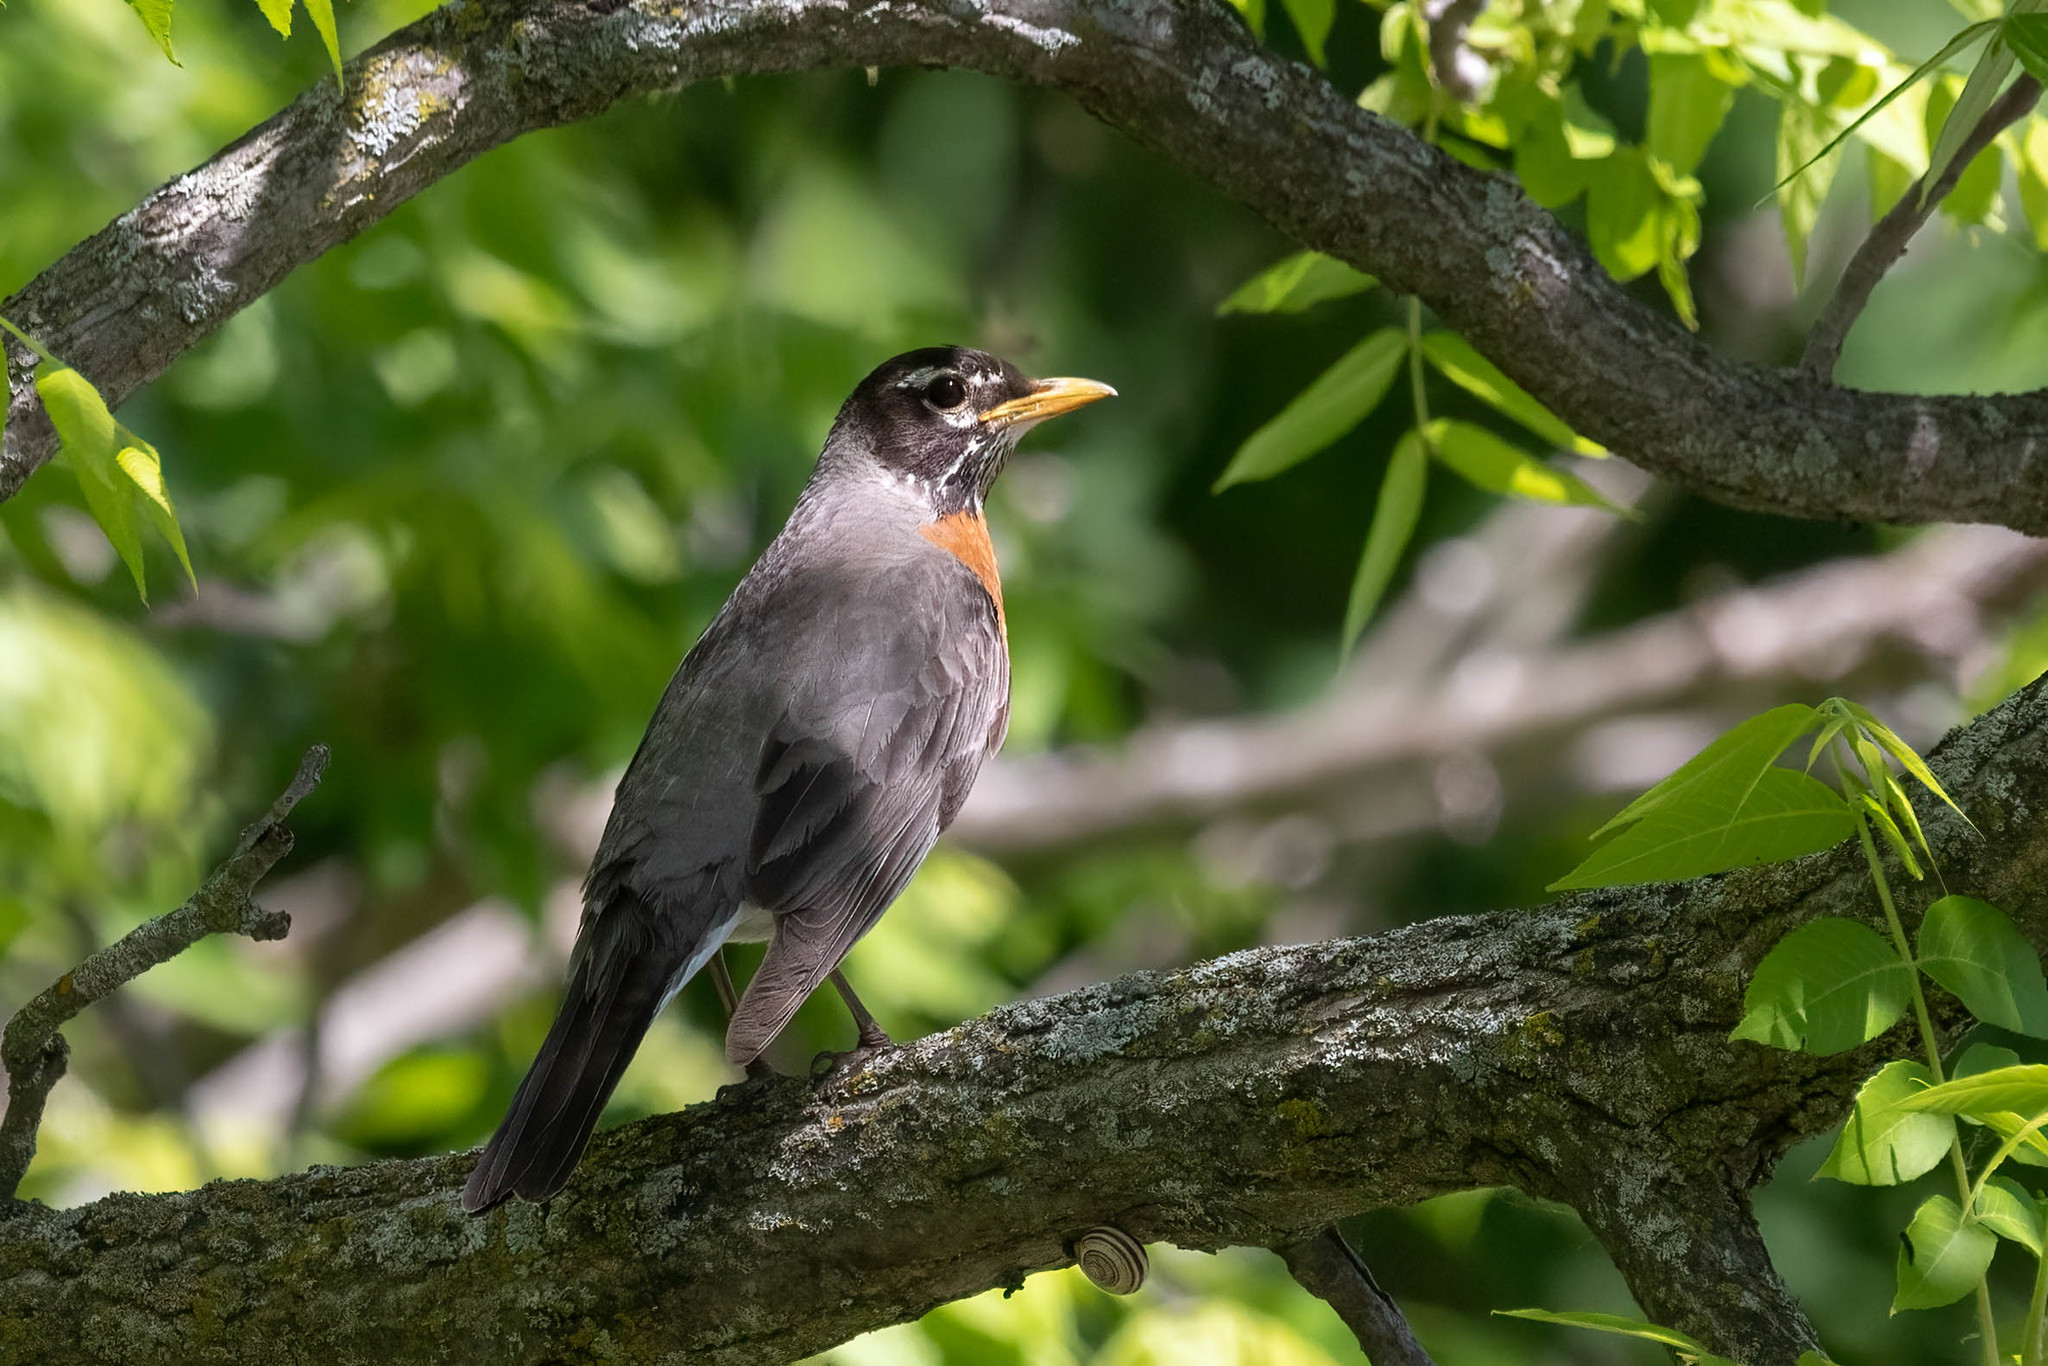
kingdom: Animalia
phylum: Chordata
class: Aves
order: Passeriformes
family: Turdidae
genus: Turdus
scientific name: Turdus migratorius
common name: American robin
